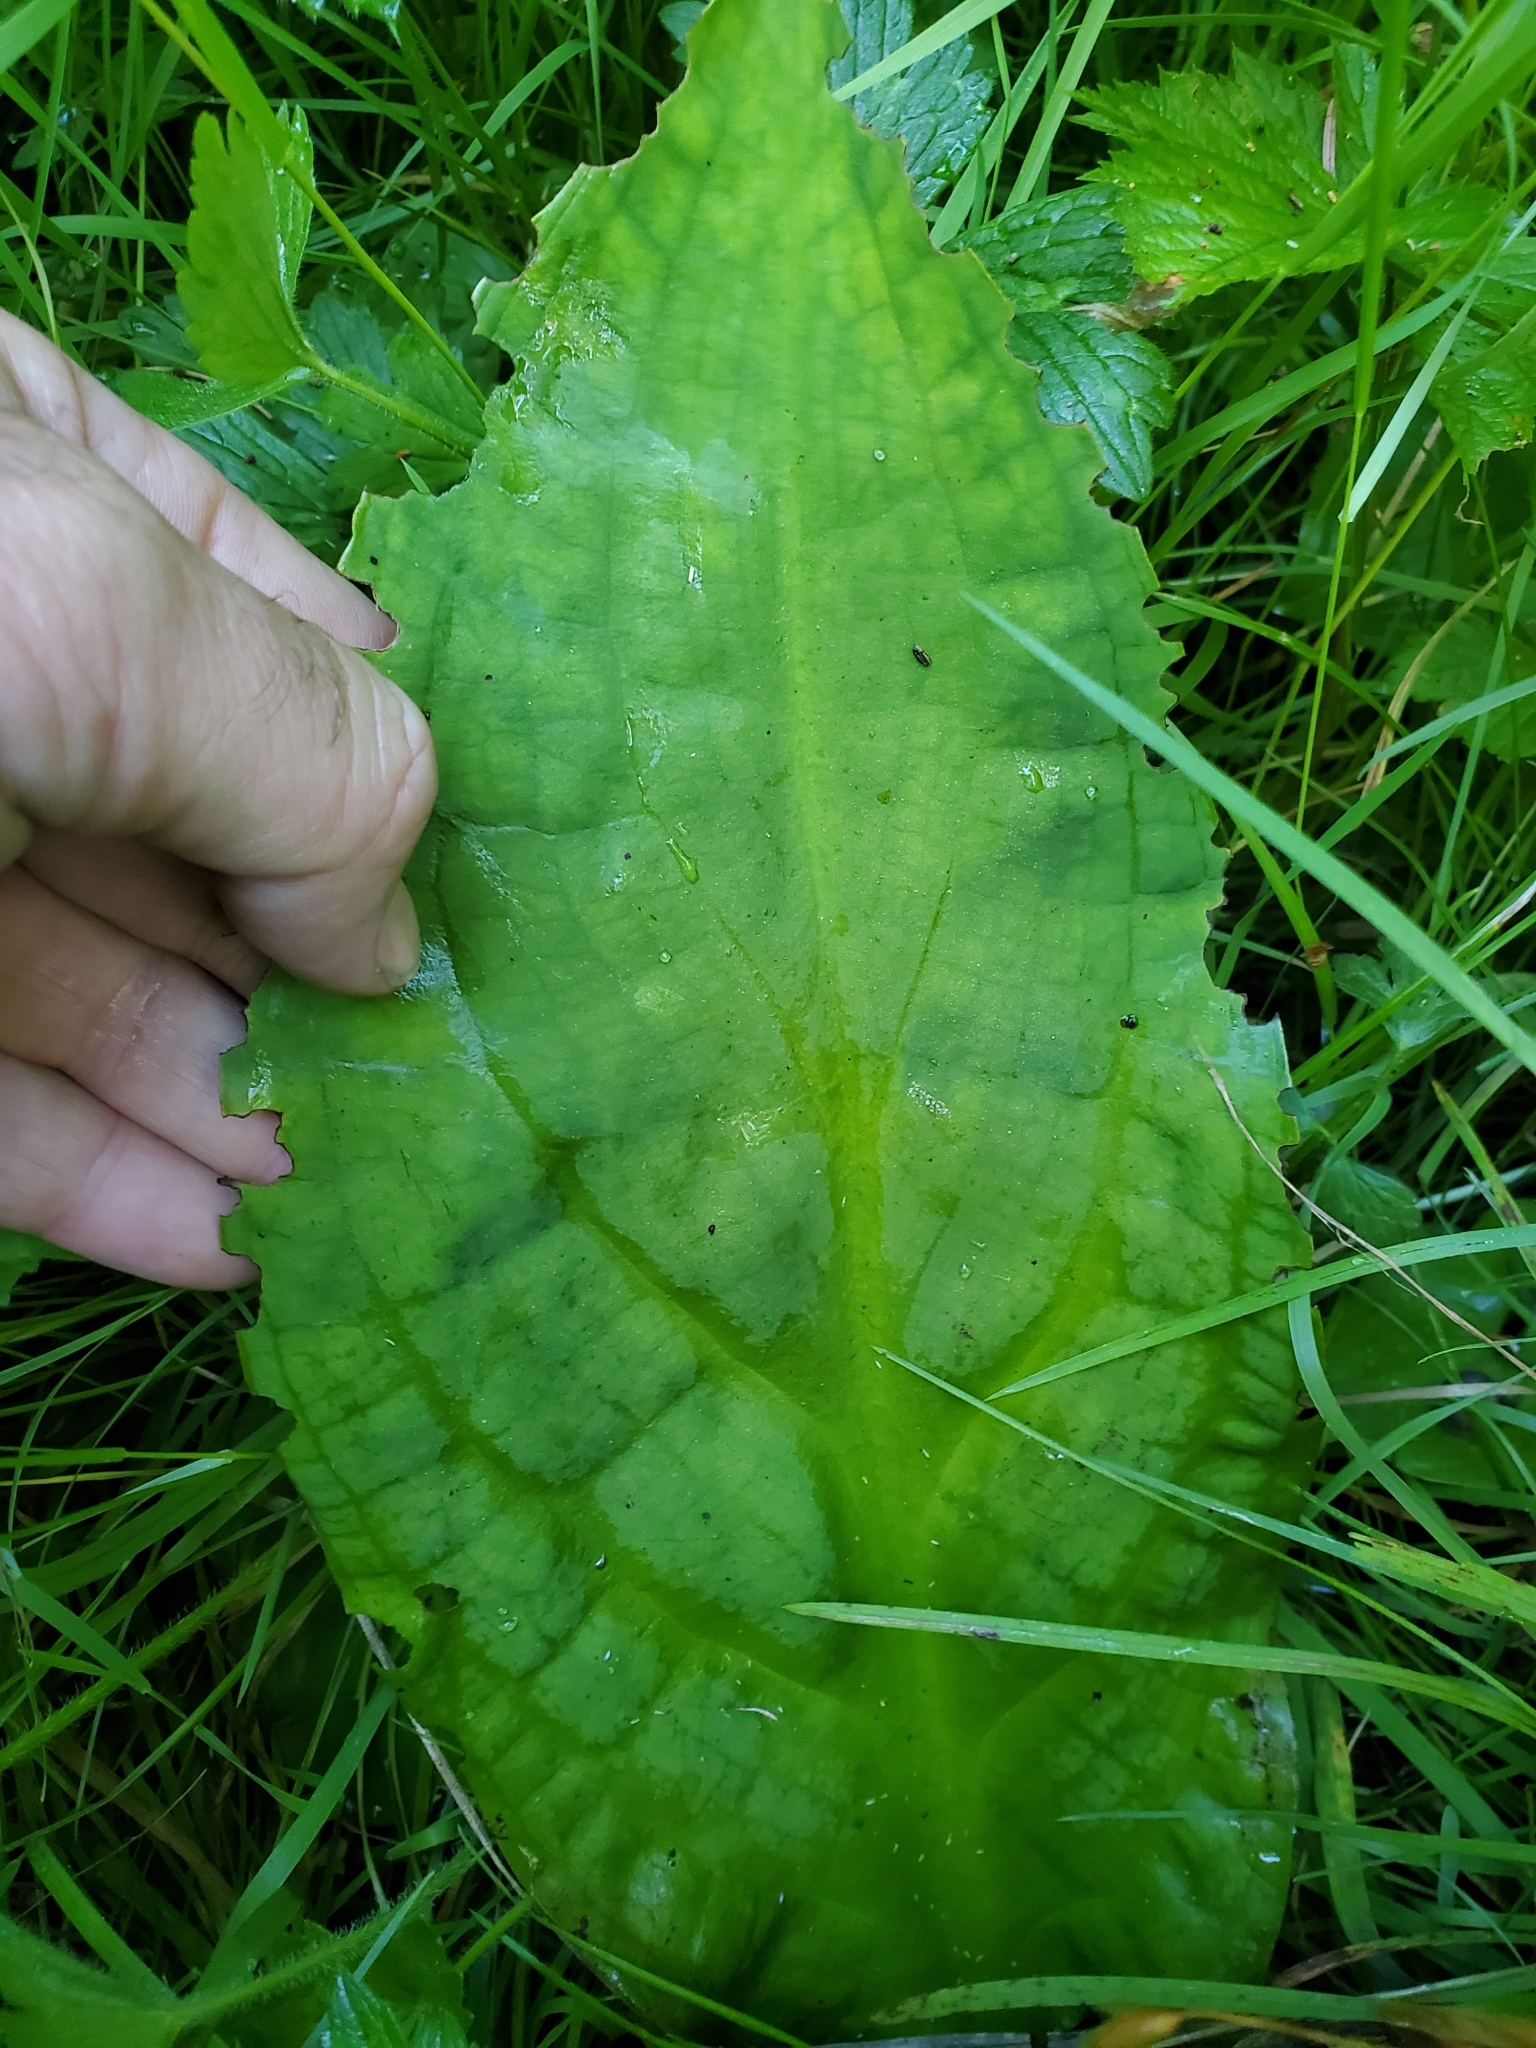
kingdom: Plantae
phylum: Tracheophyta
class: Liliopsida
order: Alismatales
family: Araceae
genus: Lysichiton
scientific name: Lysichiton americanus
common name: American skunk cabbage
